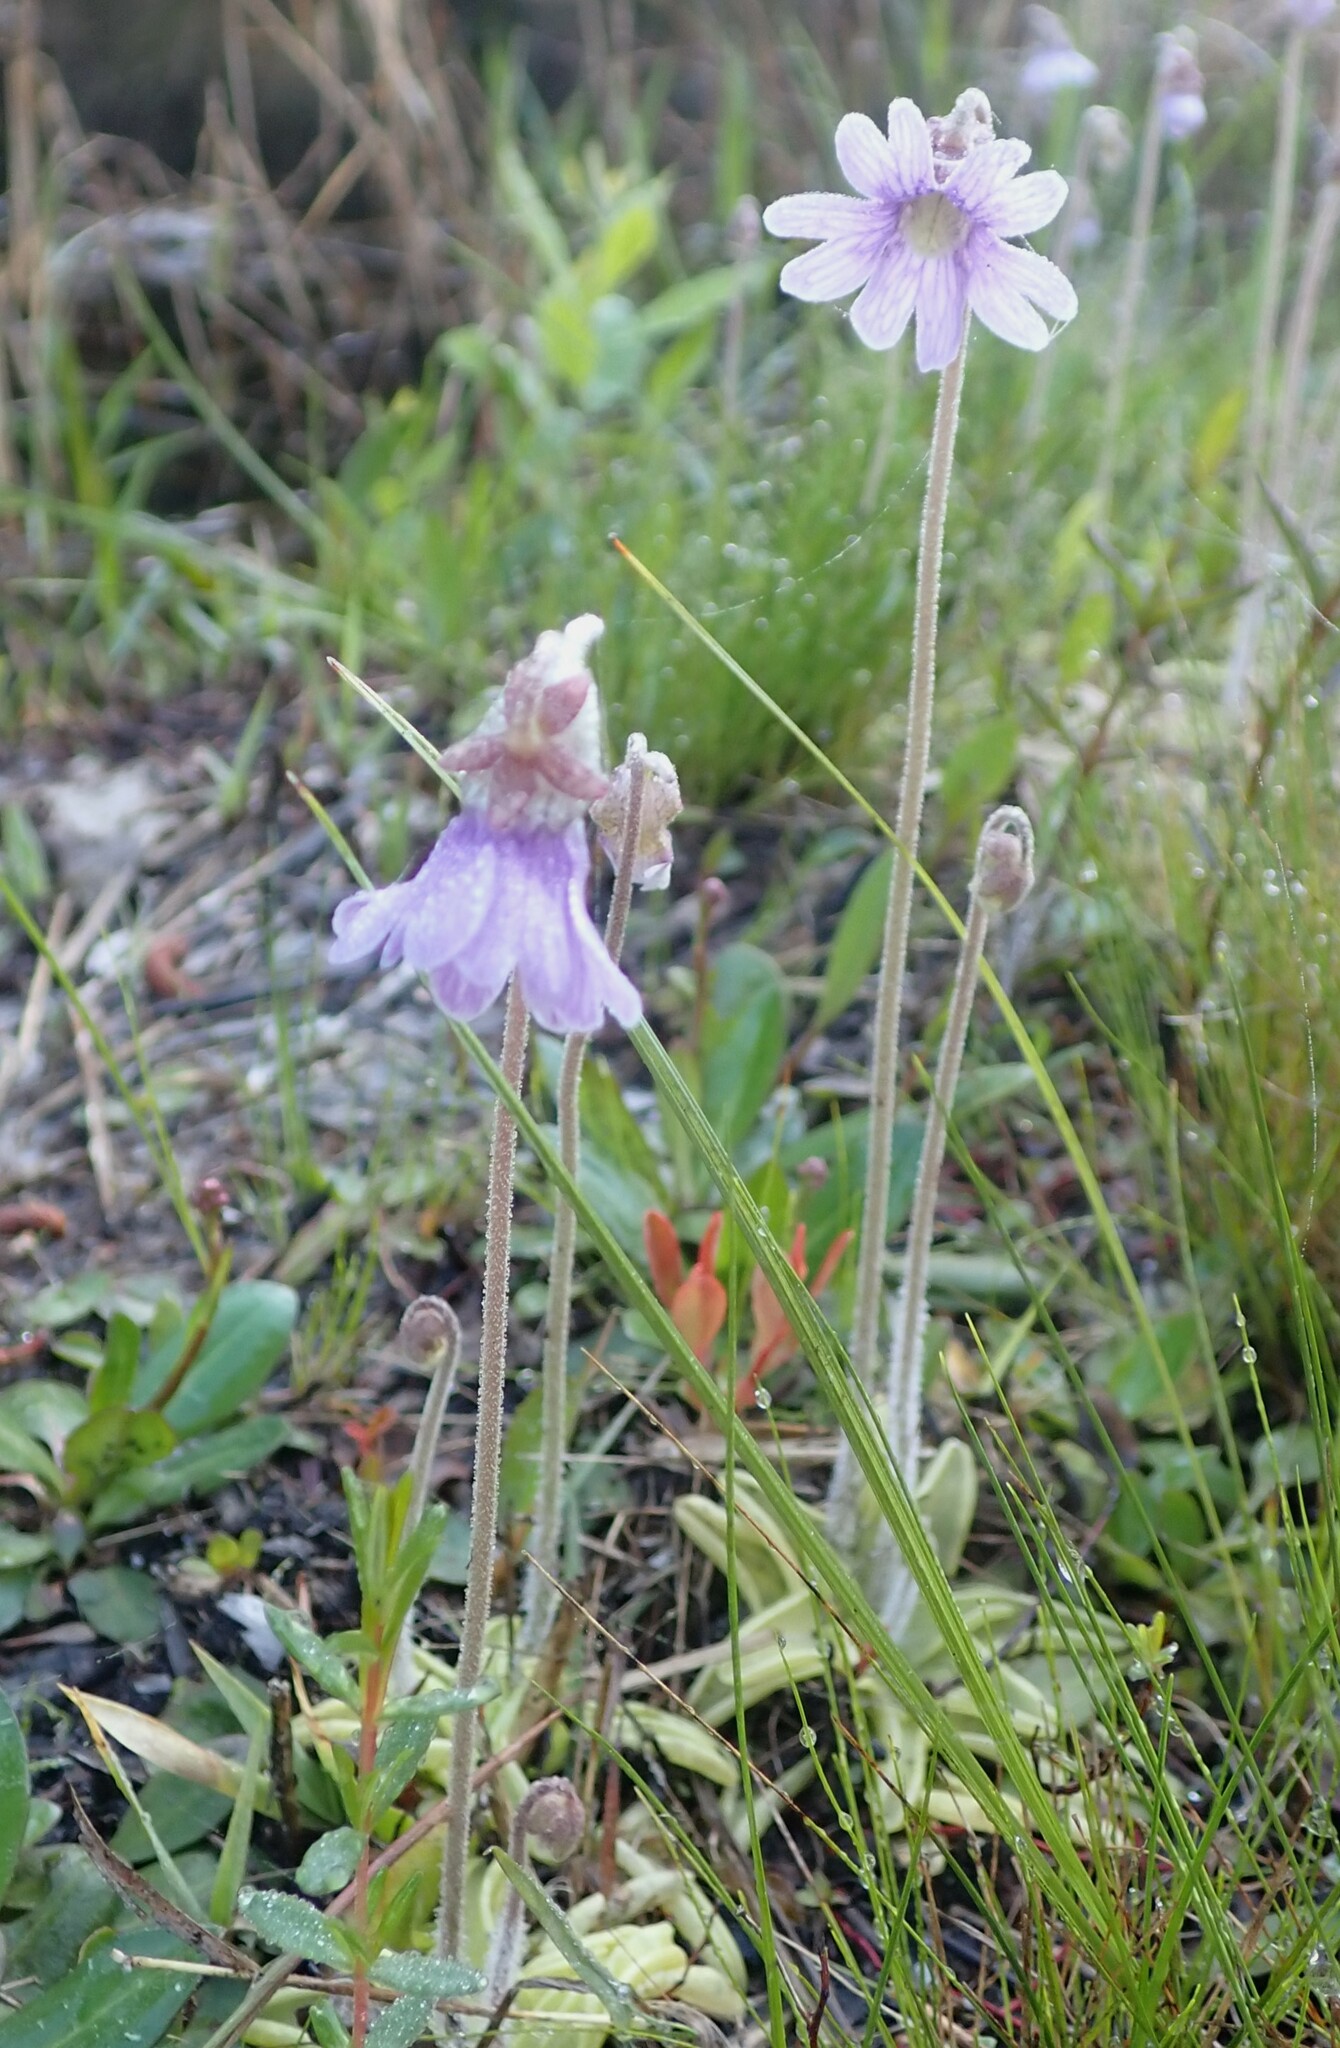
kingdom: Plantae
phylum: Tracheophyta
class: Magnoliopsida
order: Lamiales
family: Lentibulariaceae
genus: Pinguicula
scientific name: Pinguicula caerulea
